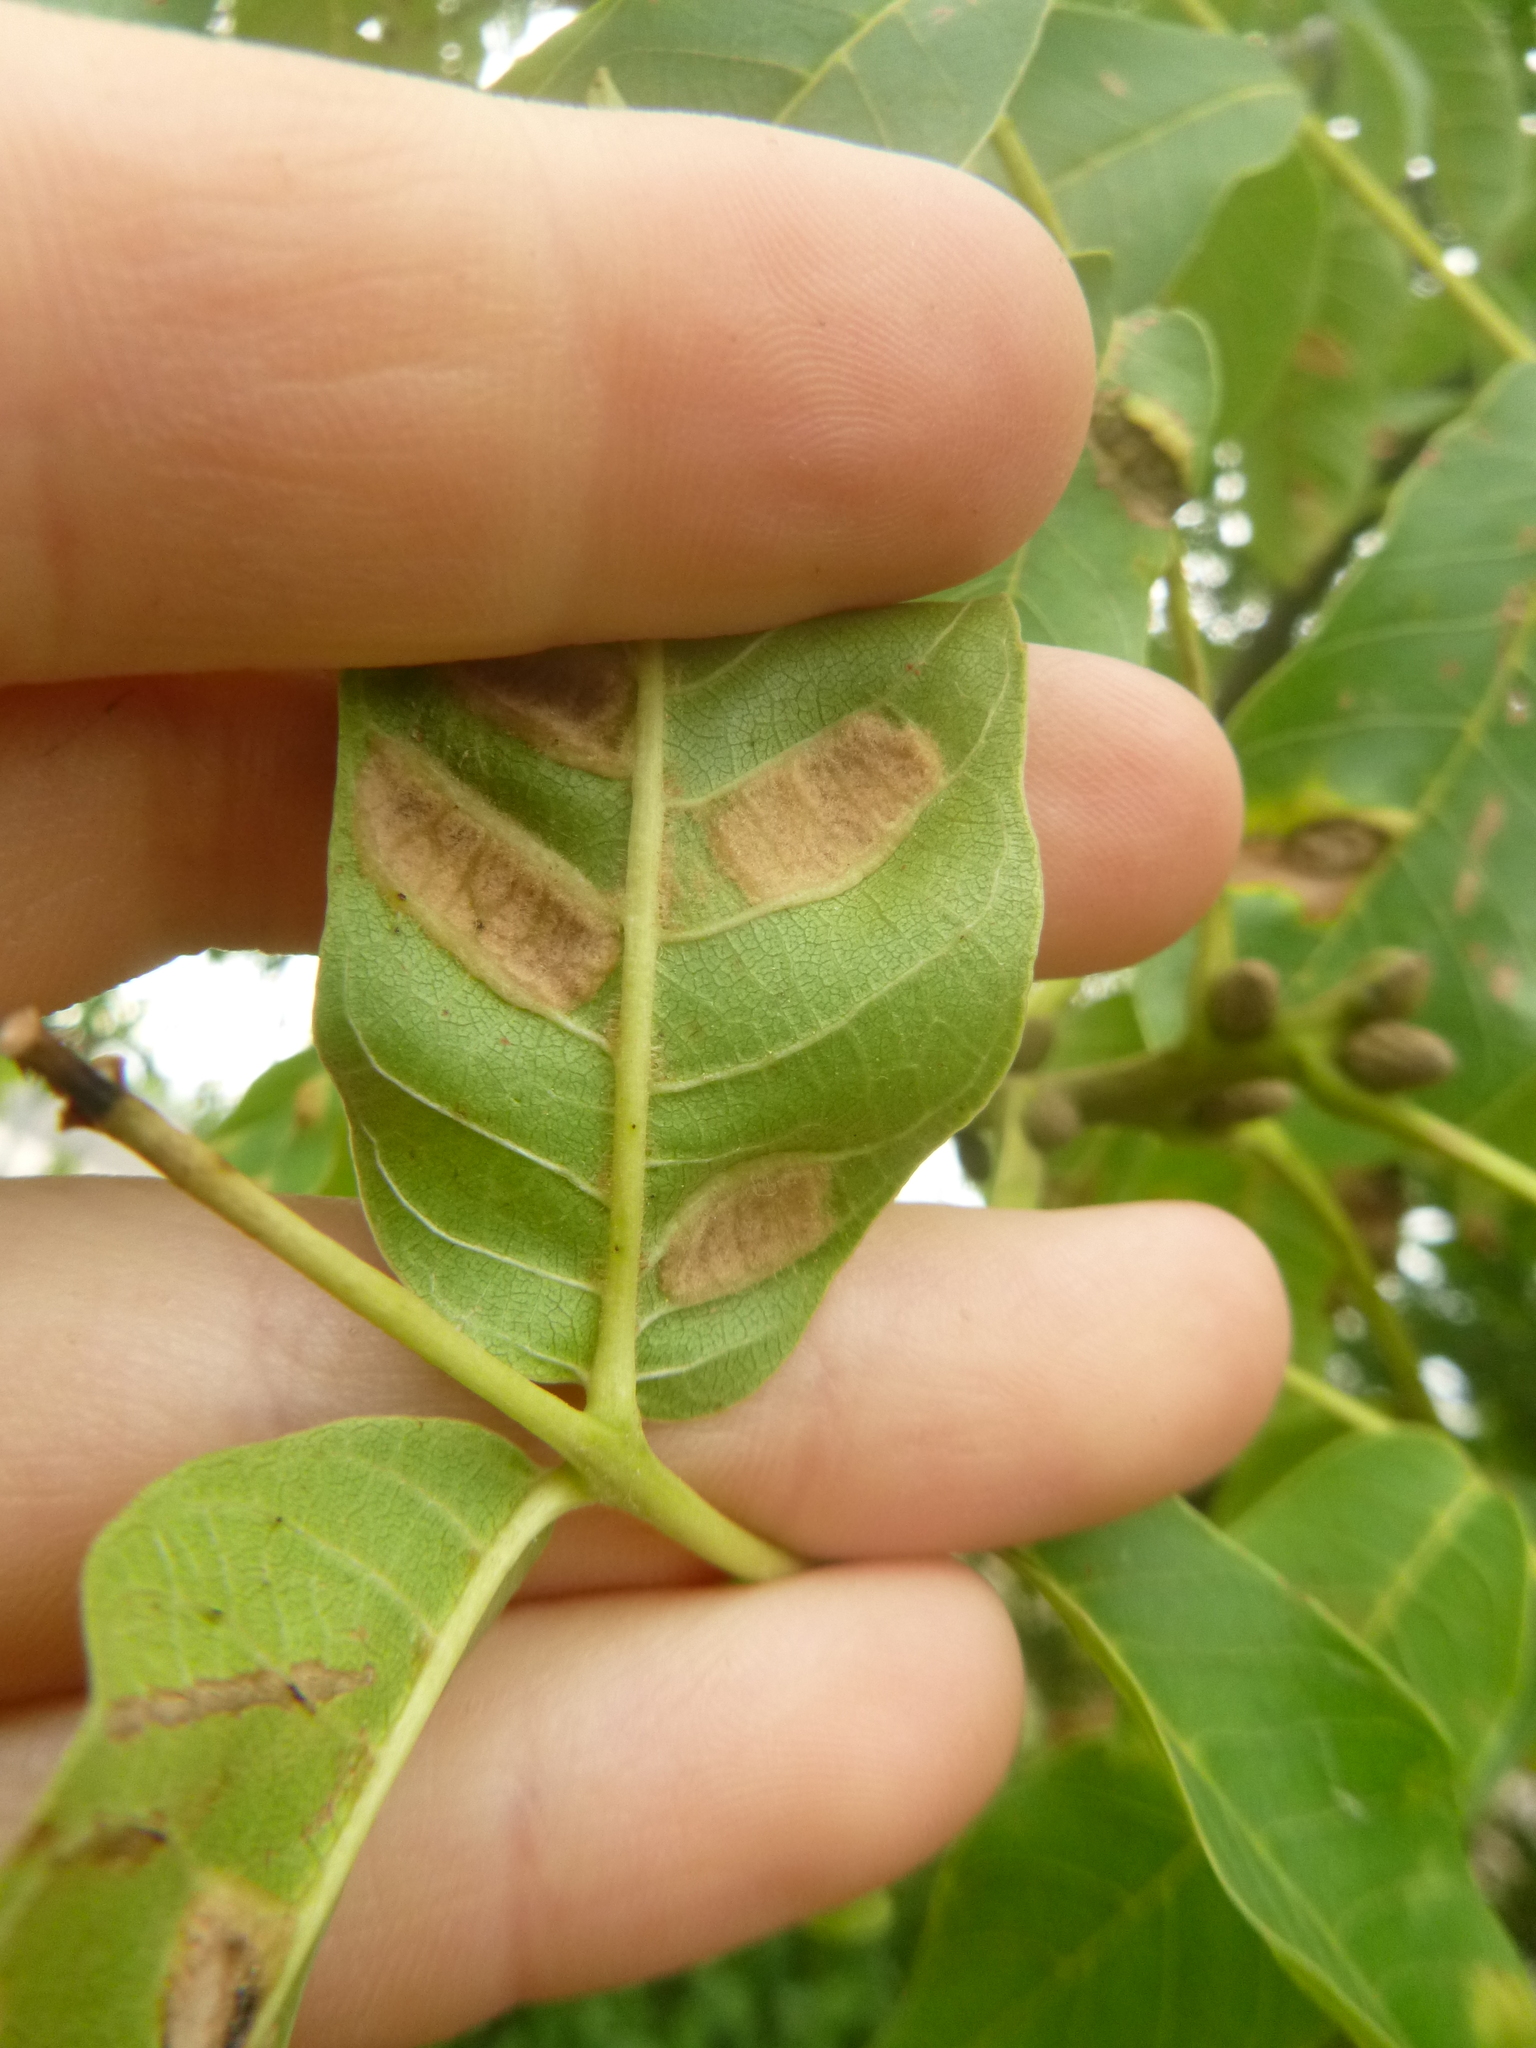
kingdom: Animalia
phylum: Arthropoda
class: Arachnida
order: Trombidiformes
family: Eriophyidae
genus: Aceria
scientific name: Aceria erinea
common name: Persian walnut erineum mite
